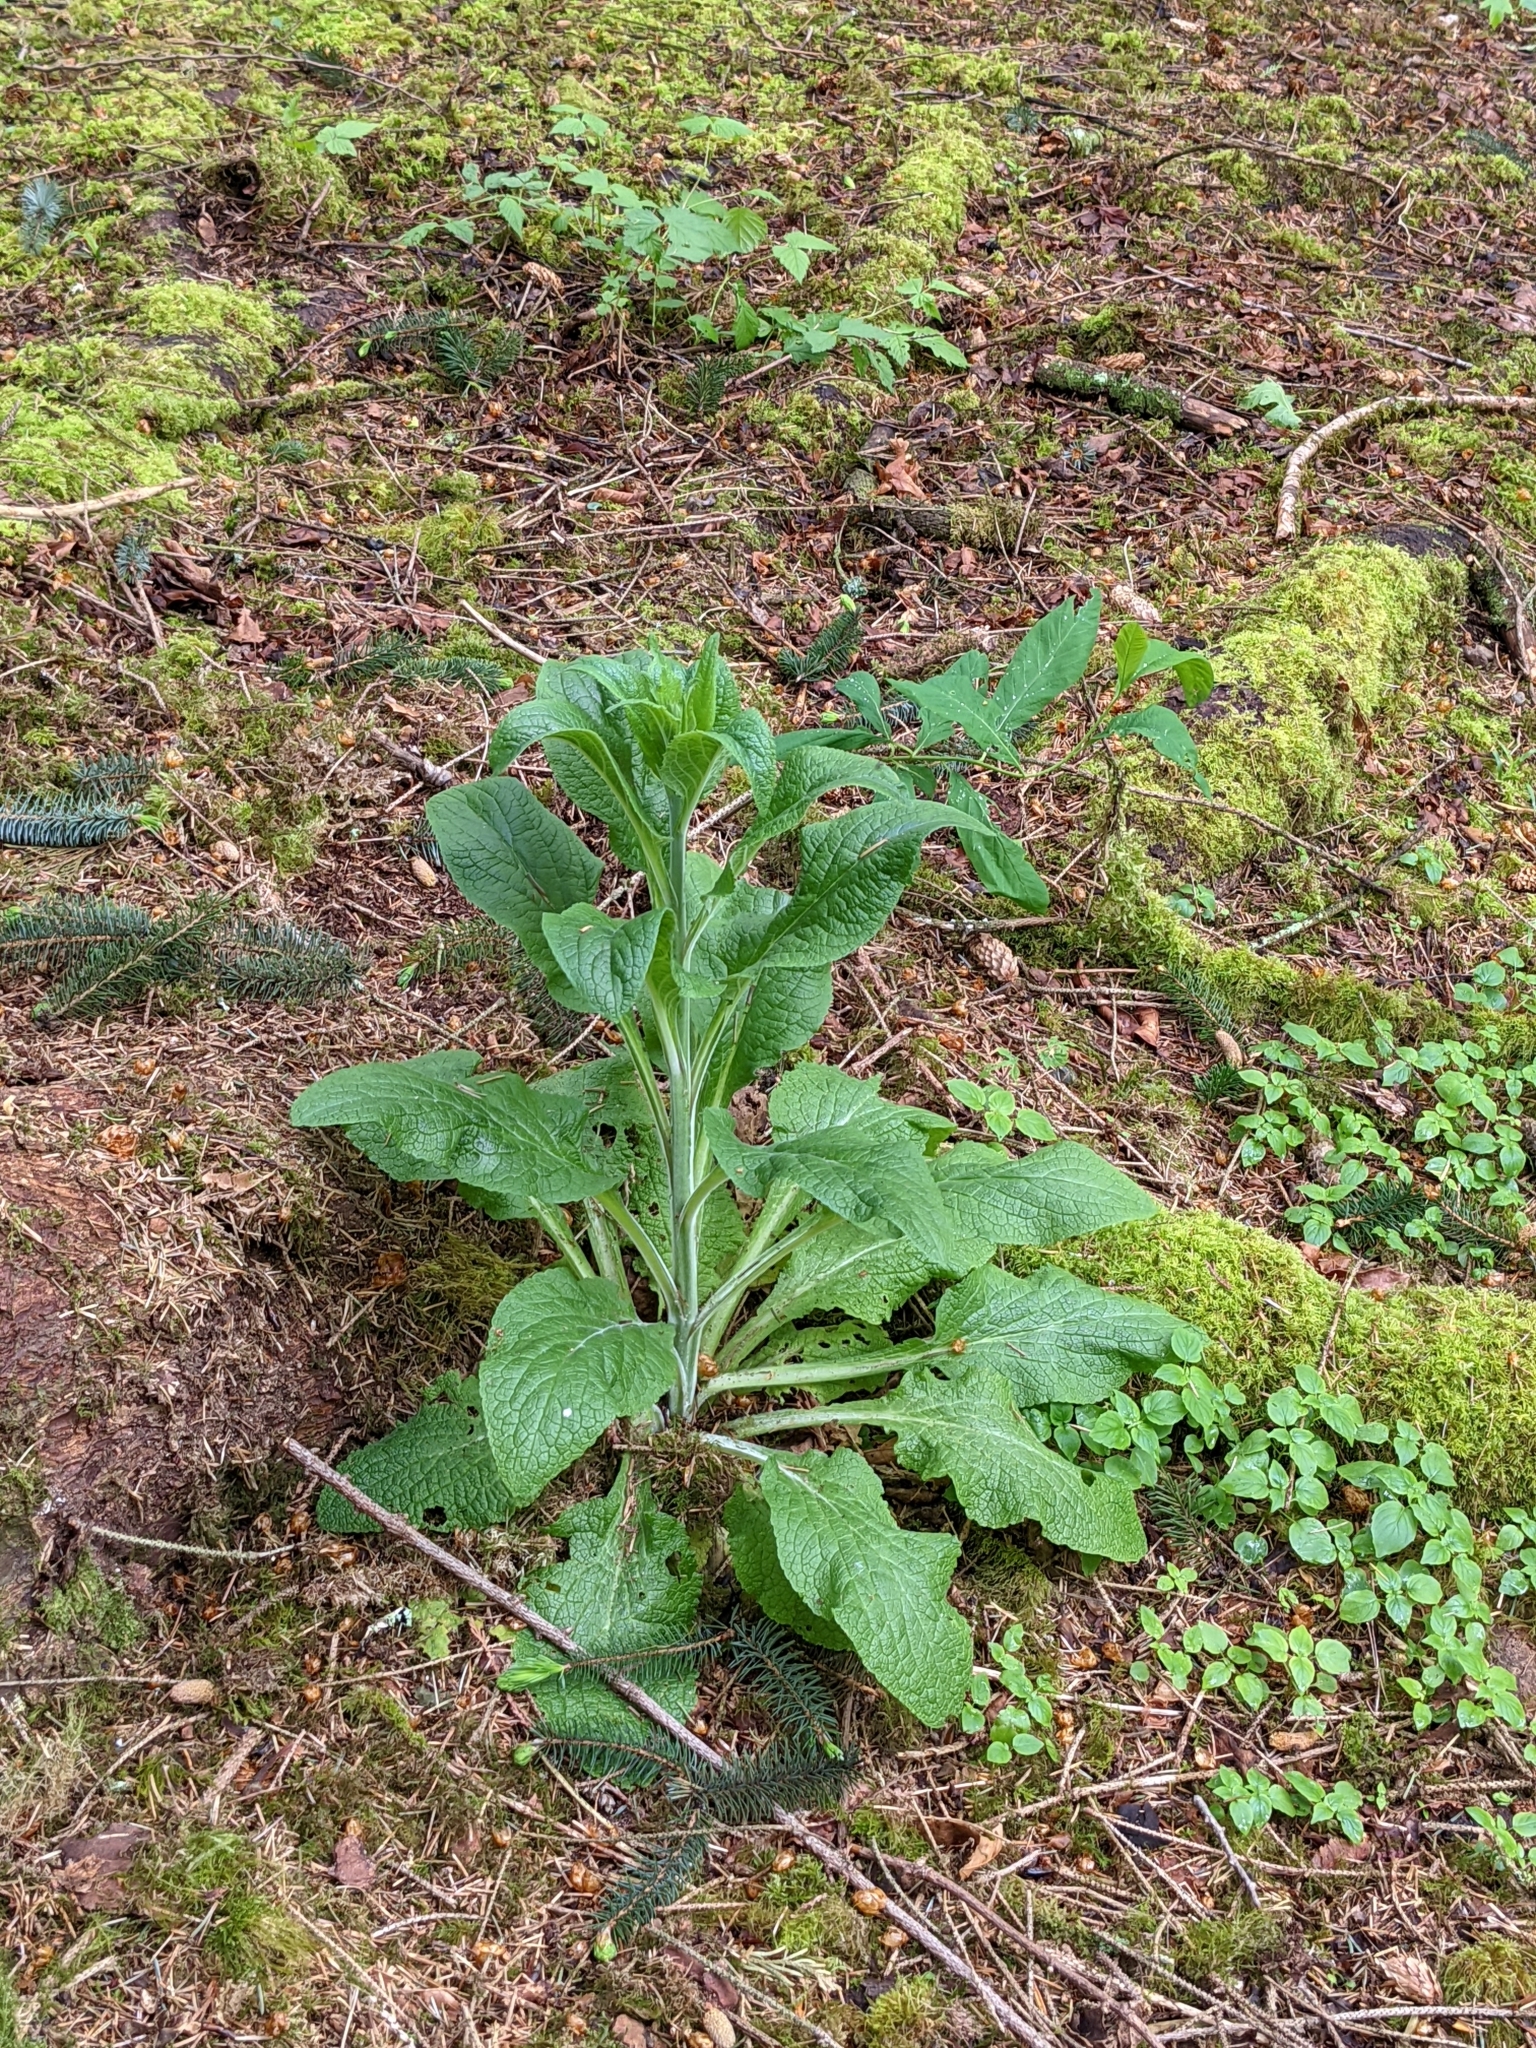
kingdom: Plantae
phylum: Tracheophyta
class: Magnoliopsida
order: Lamiales
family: Plantaginaceae
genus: Digitalis
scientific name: Digitalis purpurea
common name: Foxglove
